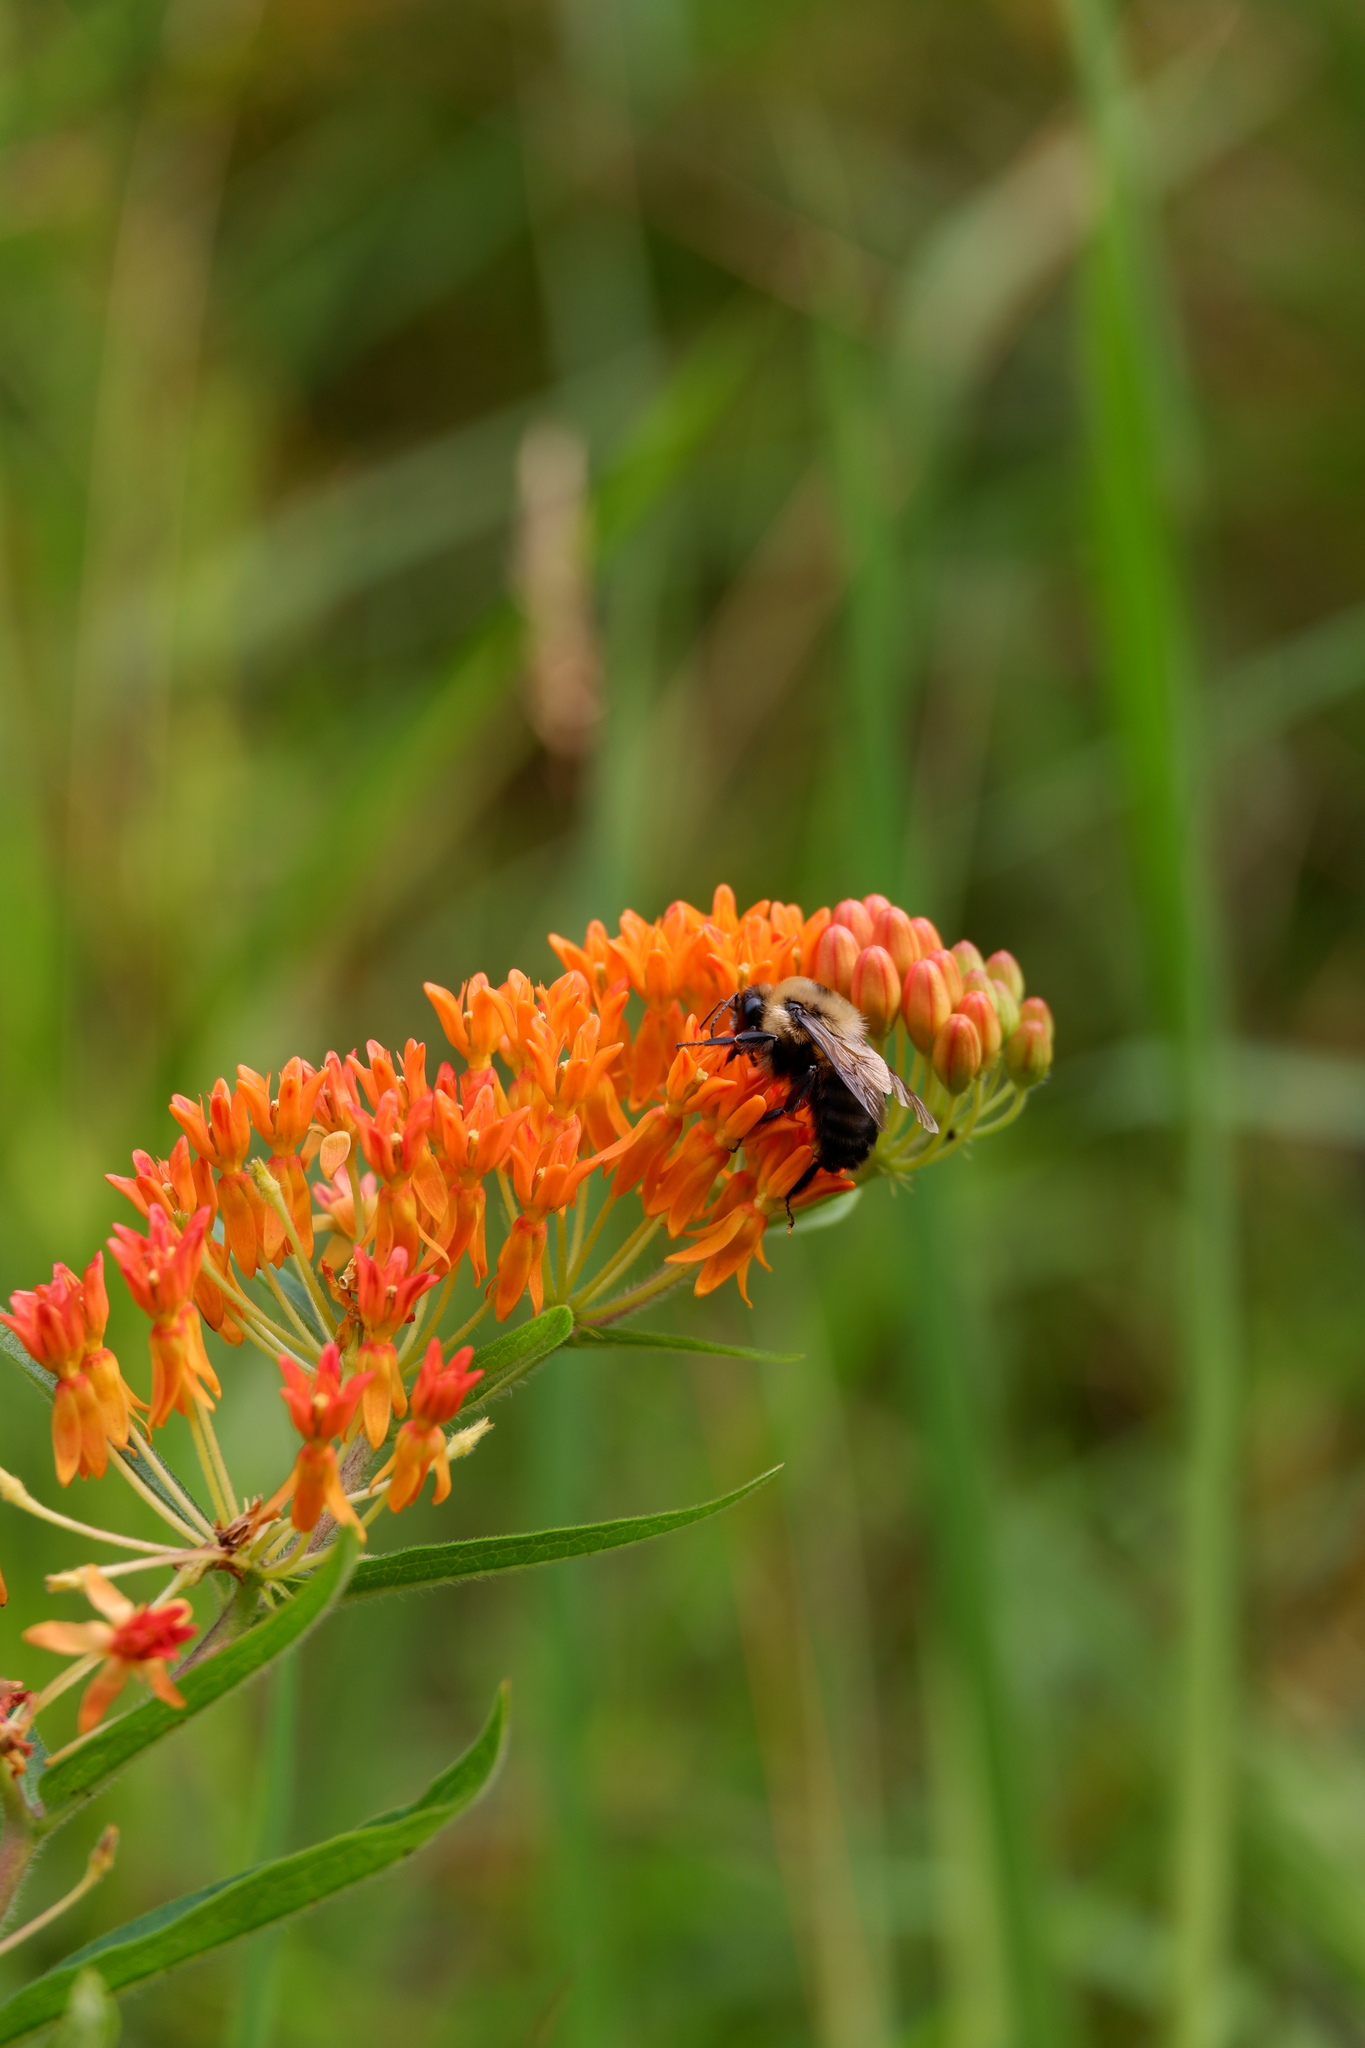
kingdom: Animalia
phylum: Arthropoda
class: Insecta
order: Hymenoptera
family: Apidae
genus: Bombus
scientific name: Bombus griseocollis
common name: Brown-belted bumble bee
